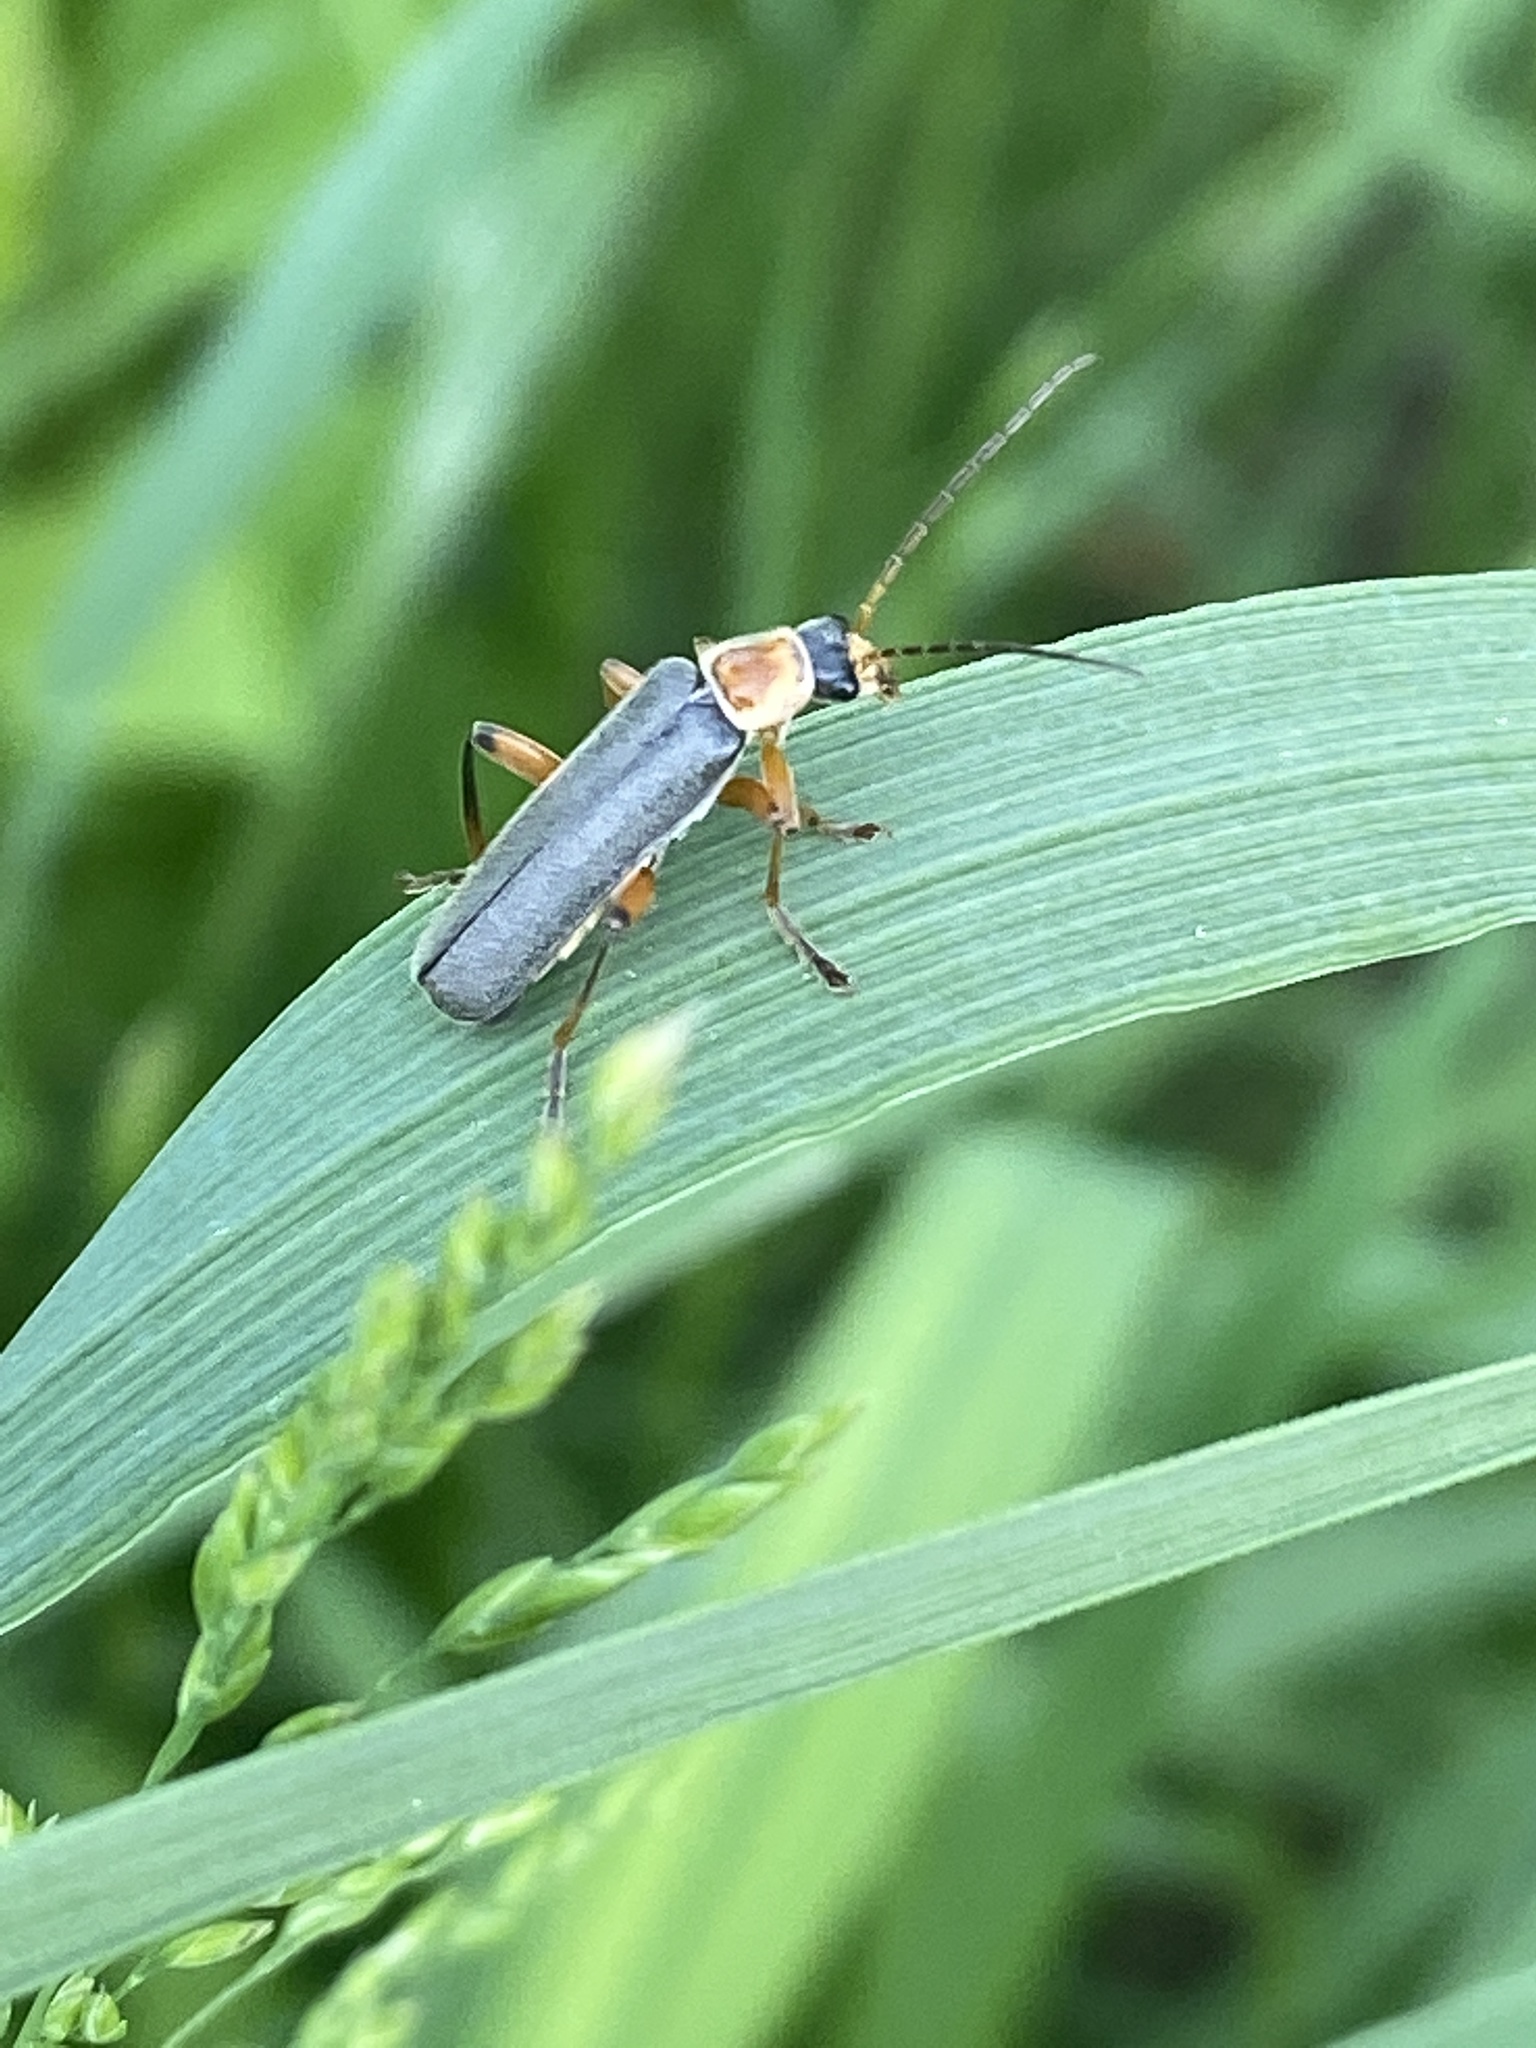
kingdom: Animalia
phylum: Arthropoda
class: Insecta
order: Coleoptera
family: Cantharidae
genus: Cantharis
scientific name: Cantharis nigricans
